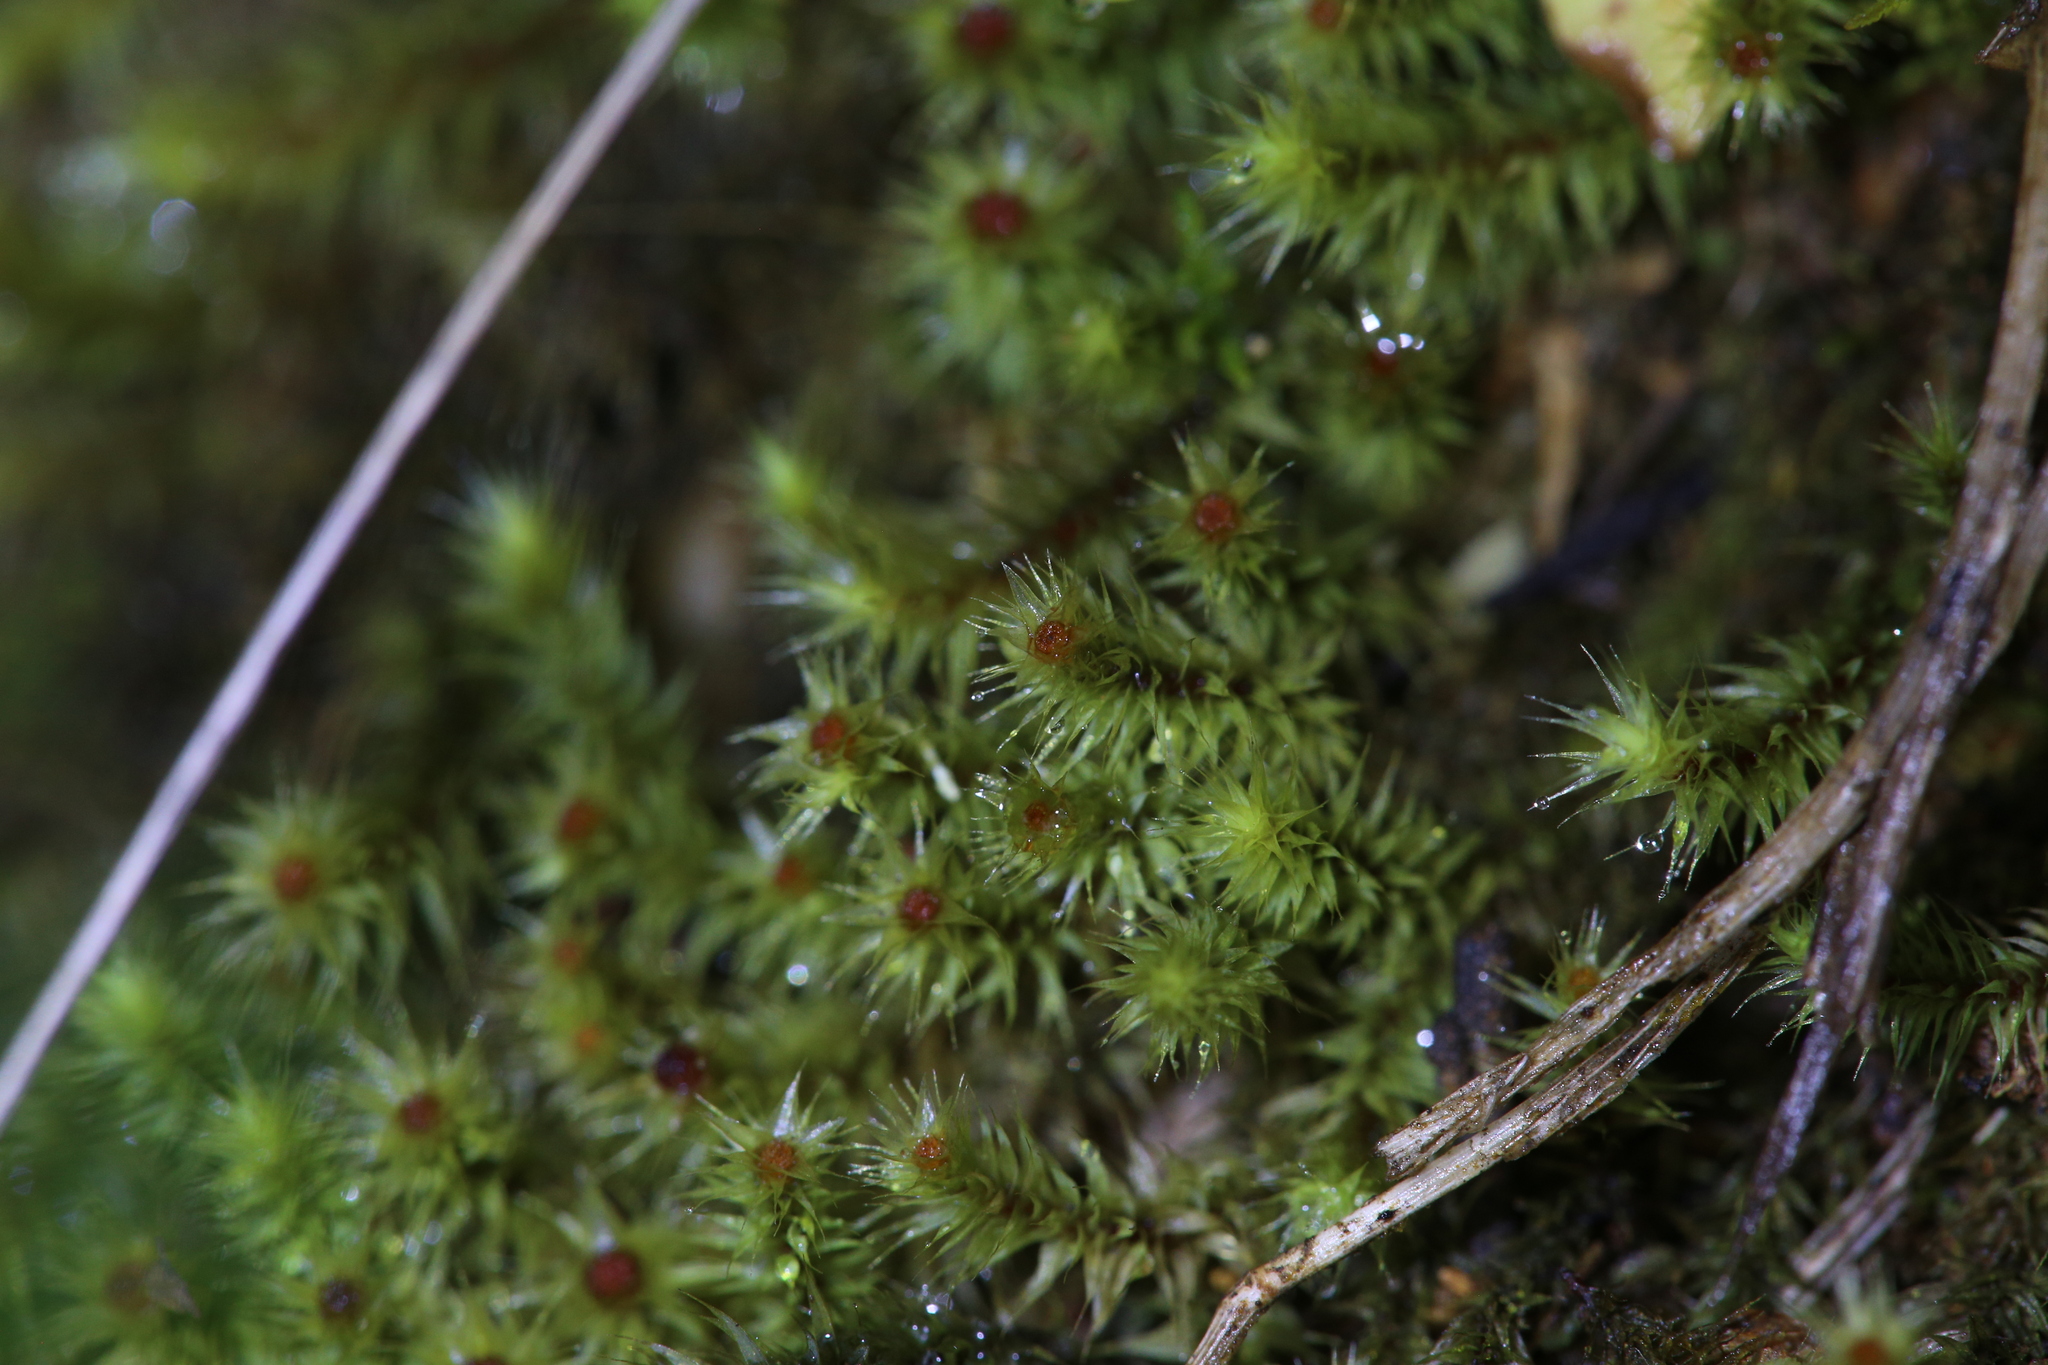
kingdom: Plantae
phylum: Bryophyta
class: Bryopsida
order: Bartramiales
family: Bartramiaceae
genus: Breutelia
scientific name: Breutelia affinis
